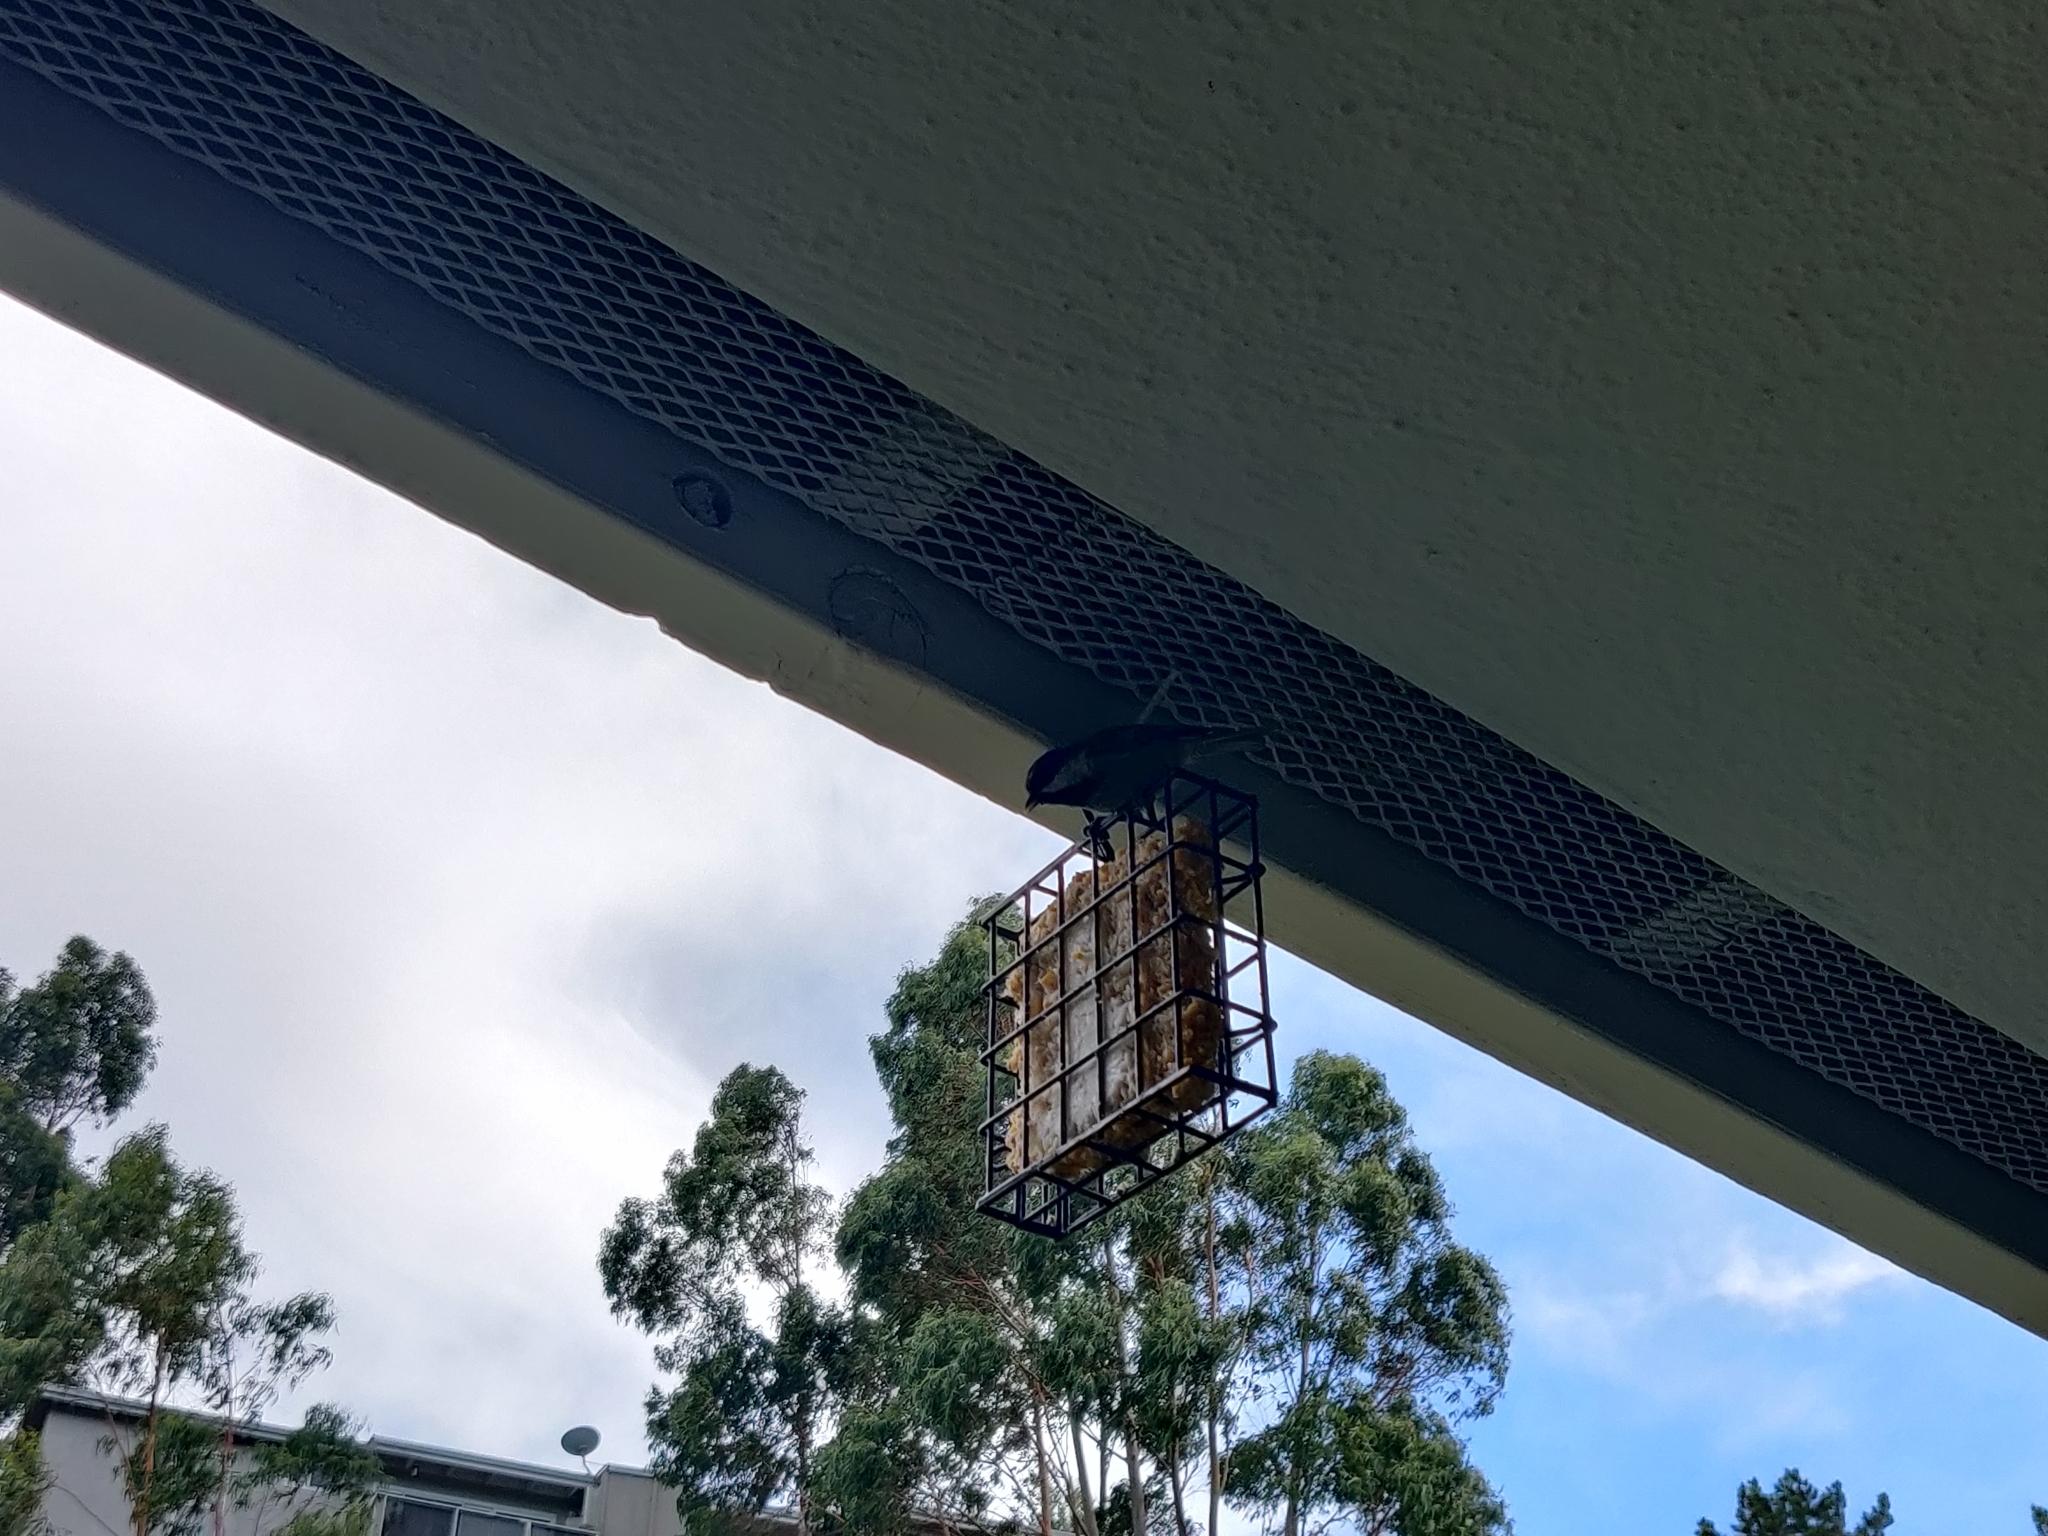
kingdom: Animalia
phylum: Chordata
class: Aves
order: Passeriformes
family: Paridae
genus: Poecile
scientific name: Poecile rufescens
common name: Chestnut-backed chickadee
